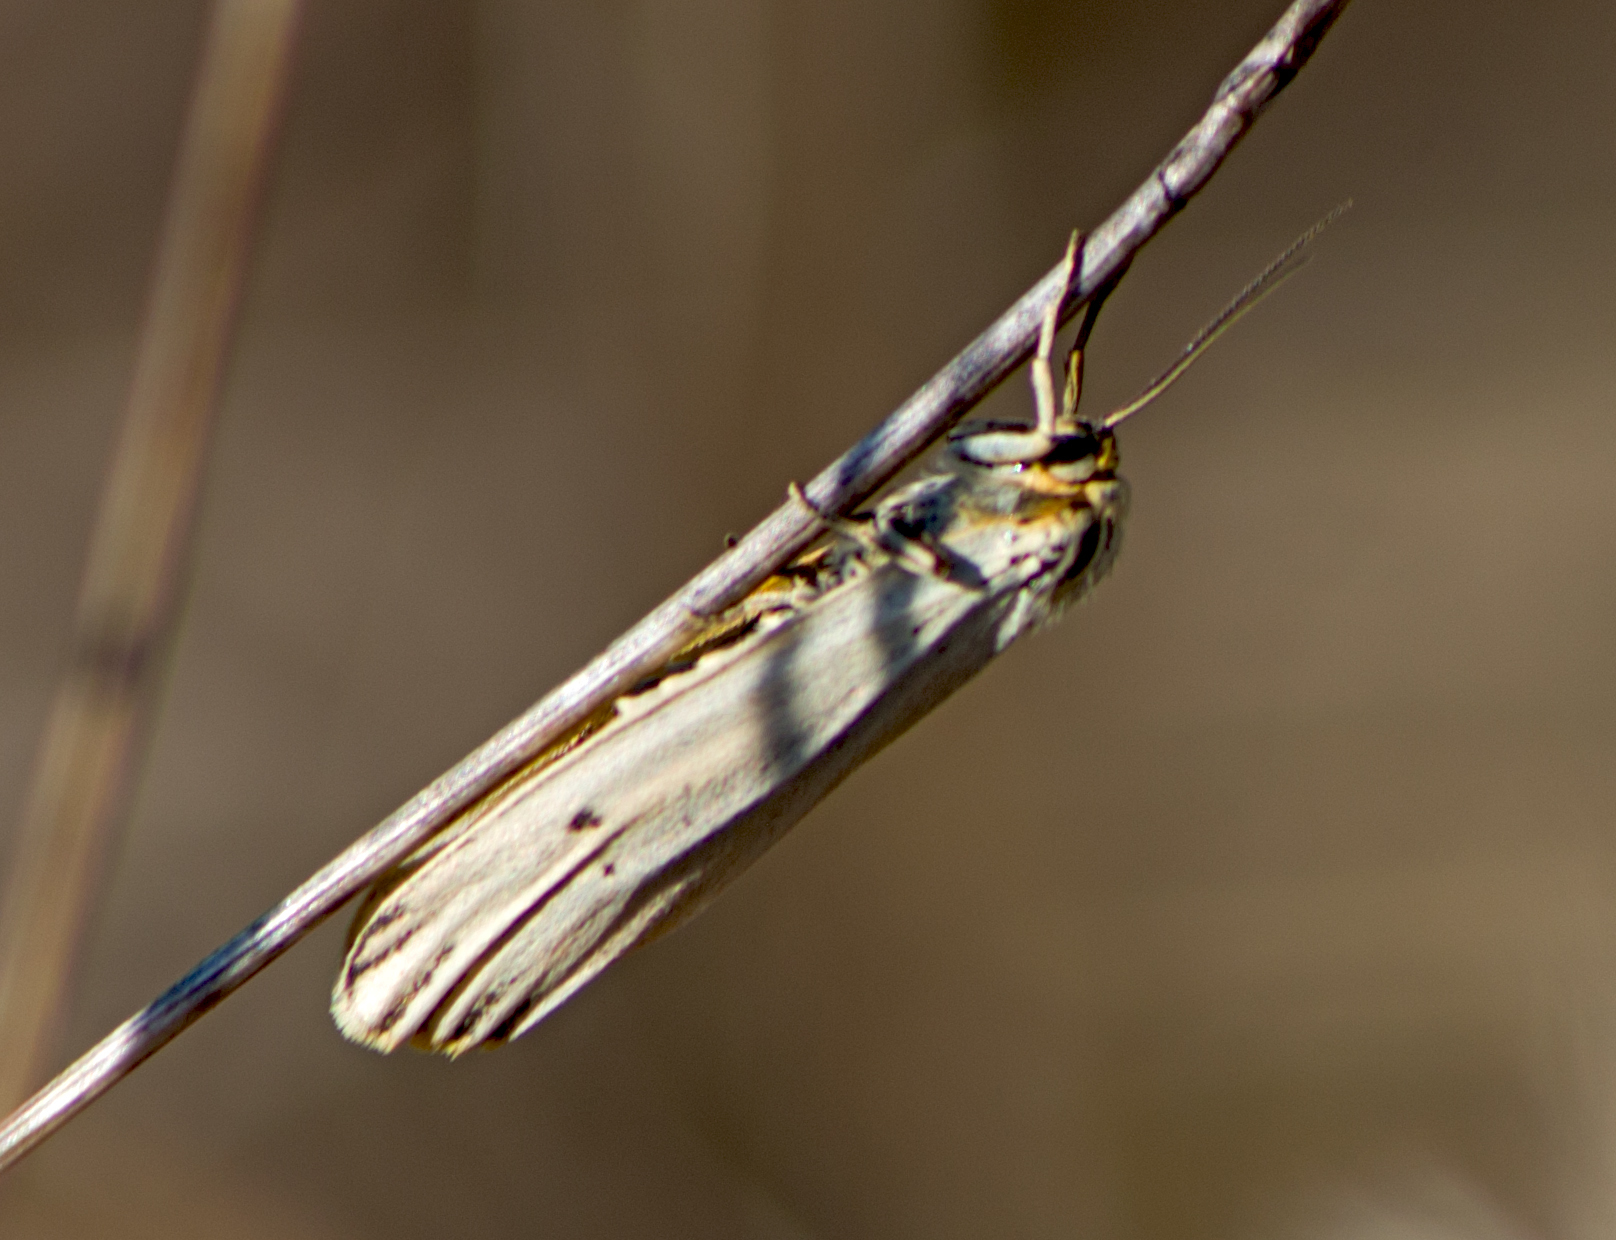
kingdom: Animalia
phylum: Arthropoda
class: Insecta
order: Lepidoptera
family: Erebidae
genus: Coscinia
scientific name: Coscinia Spiris striata
